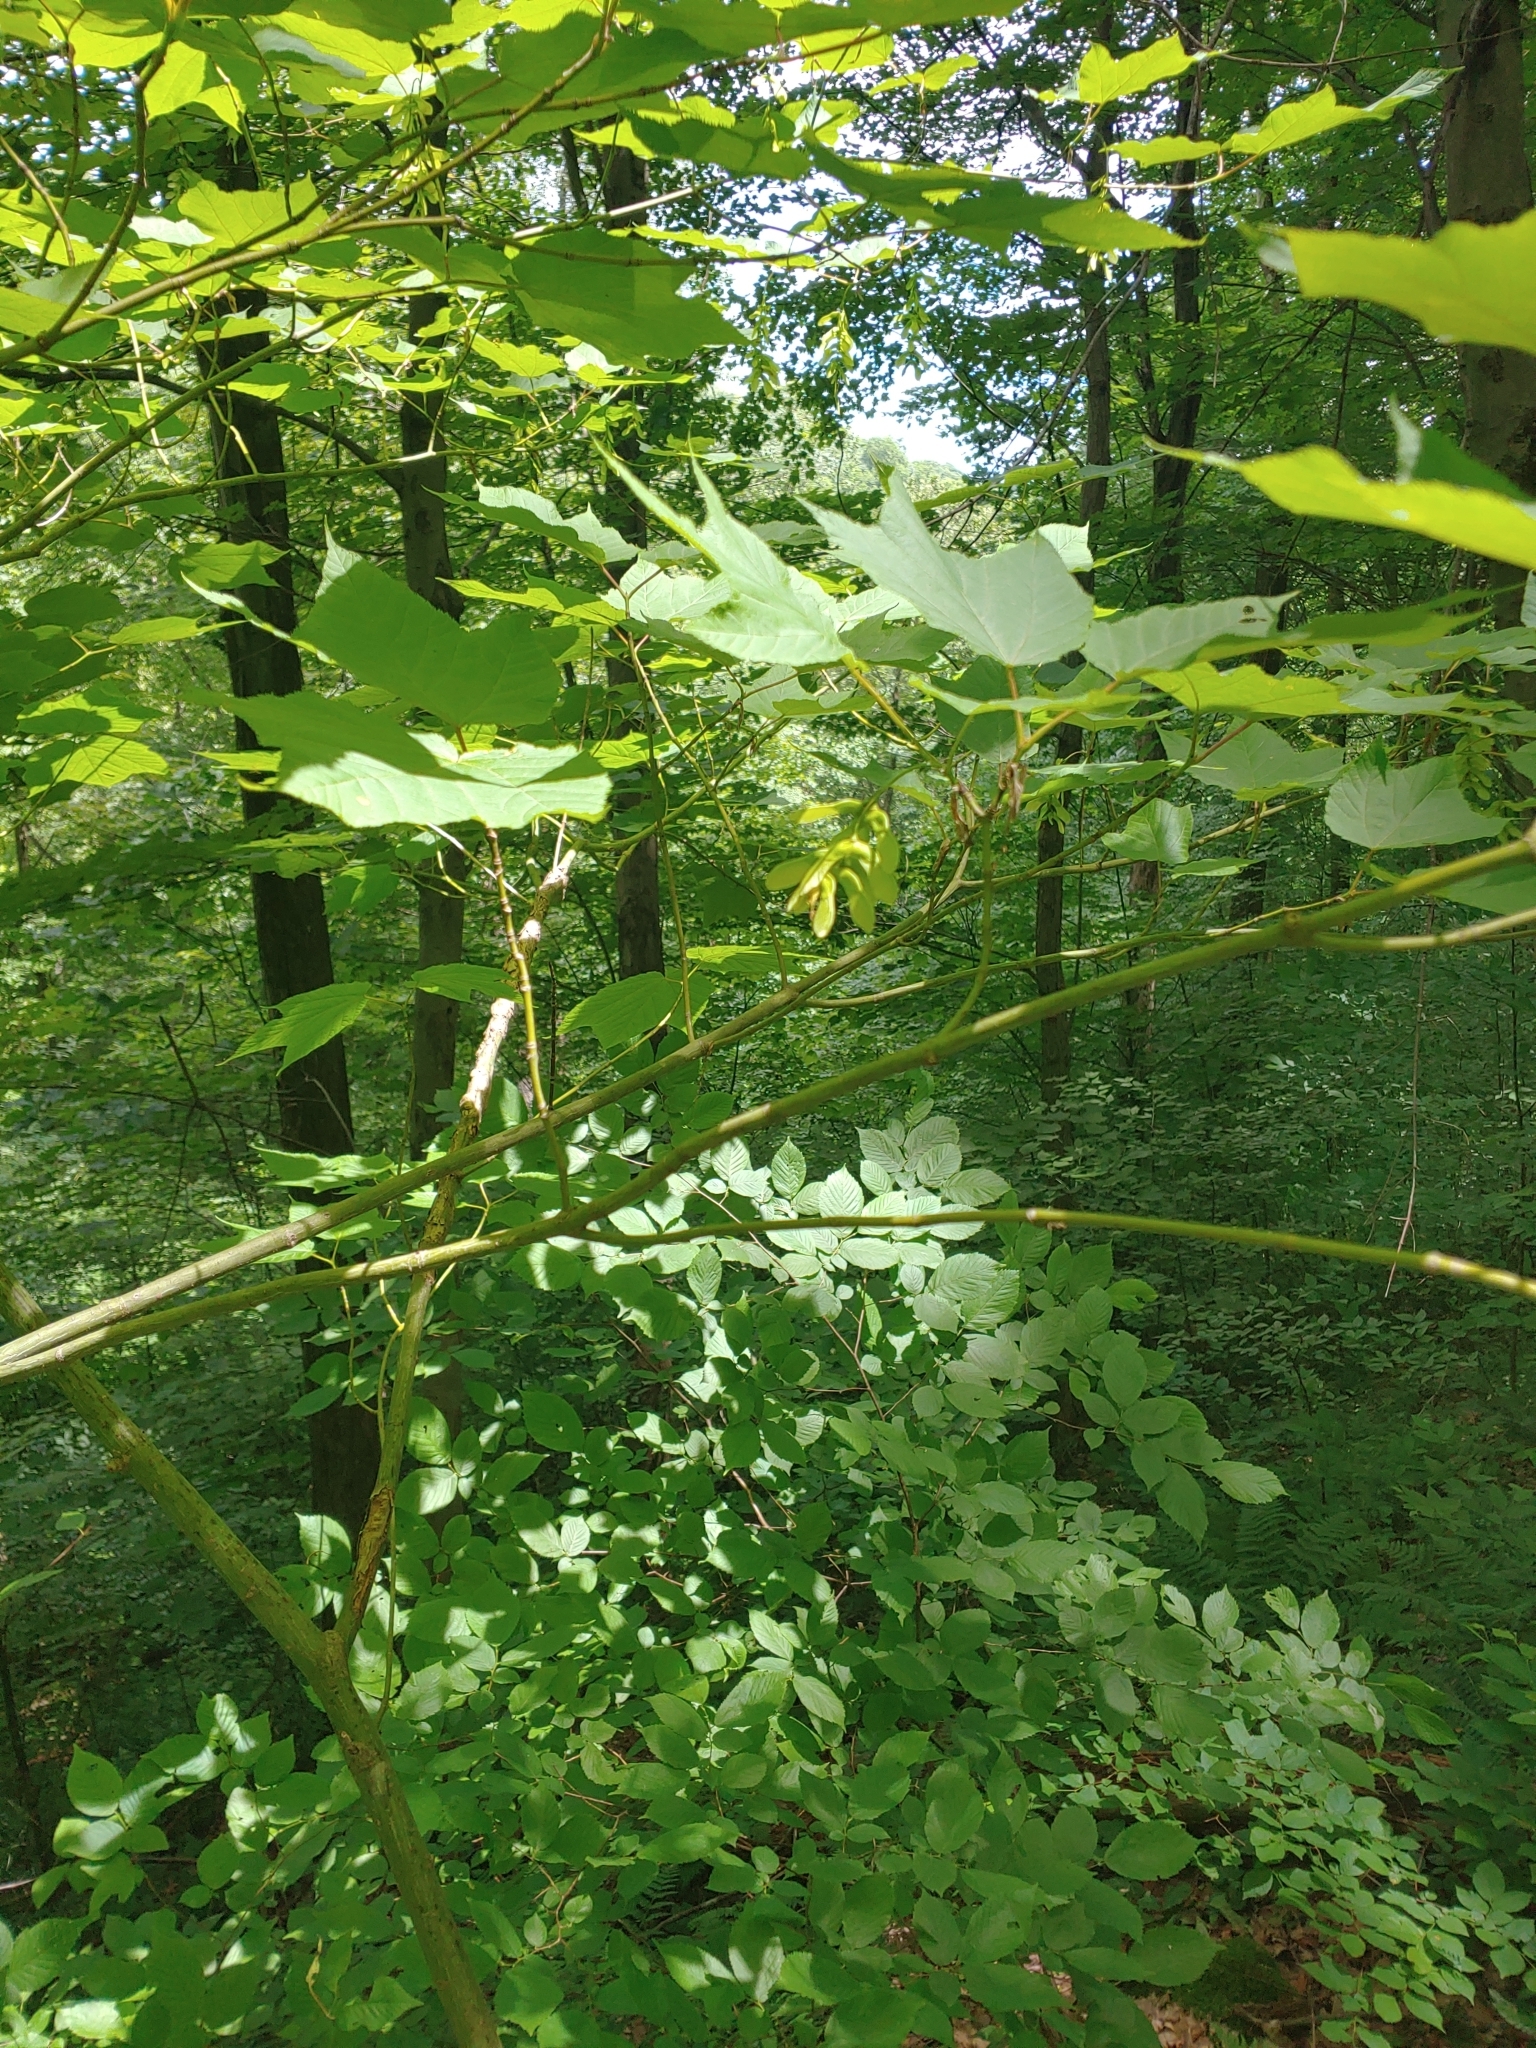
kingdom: Plantae
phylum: Tracheophyta
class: Magnoliopsida
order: Sapindales
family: Sapindaceae
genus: Acer
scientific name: Acer pensylvanicum
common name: Moosewood
